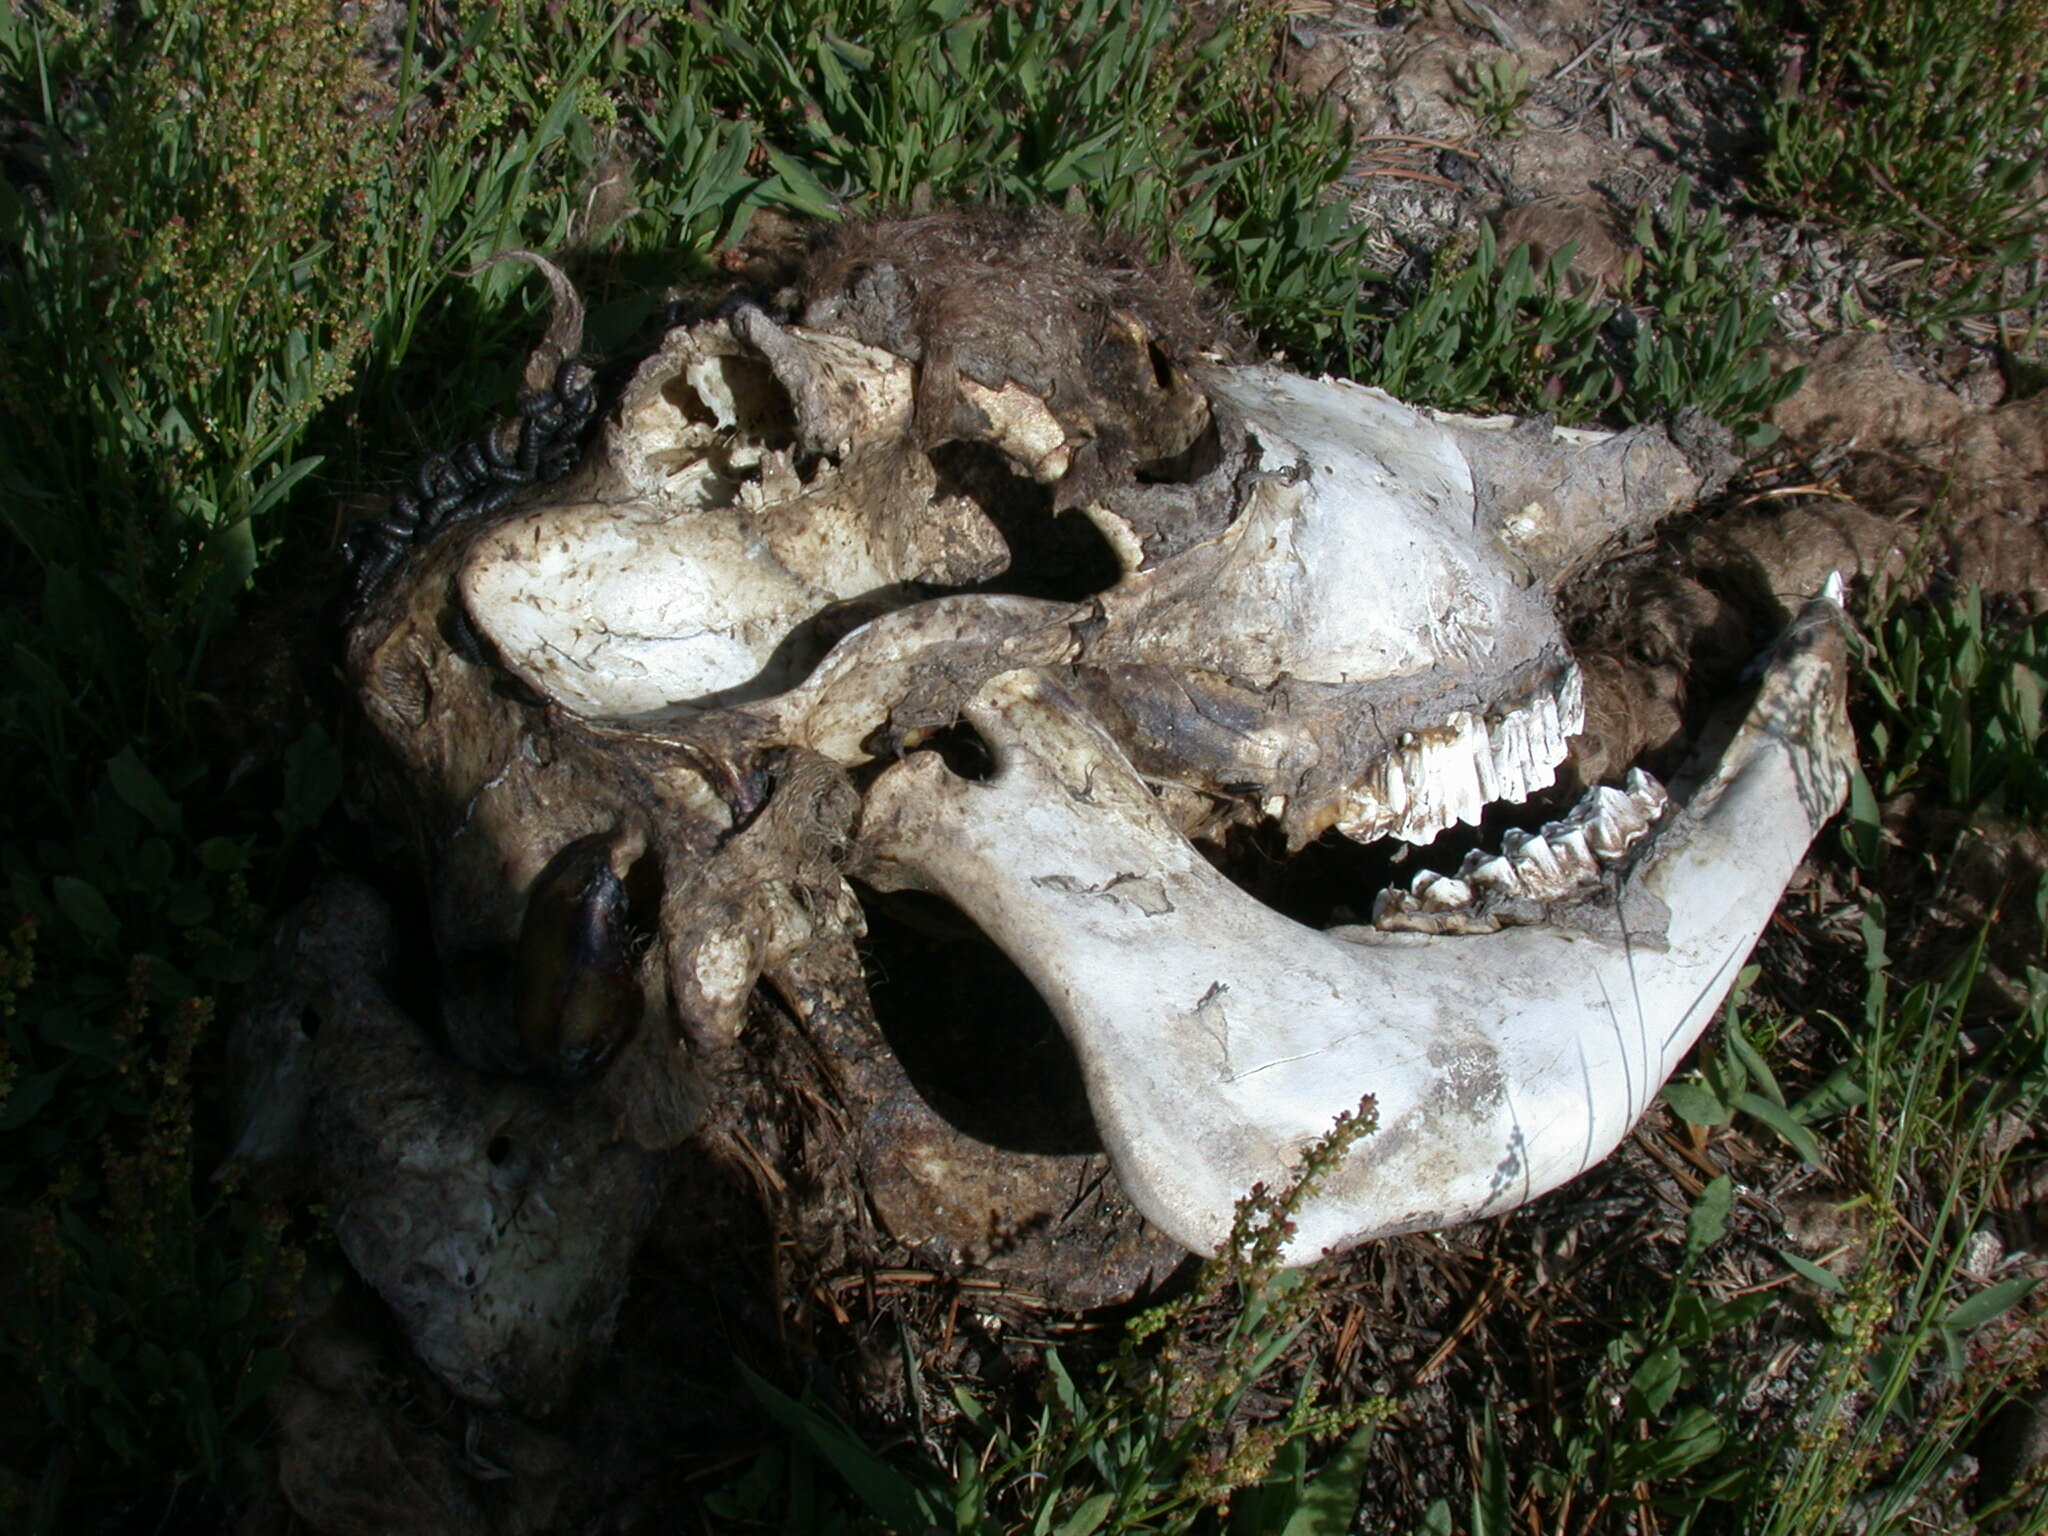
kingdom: Animalia
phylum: Chordata
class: Mammalia
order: Artiodactyla
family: Bovidae
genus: Bison
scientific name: Bison bison
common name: American bison
